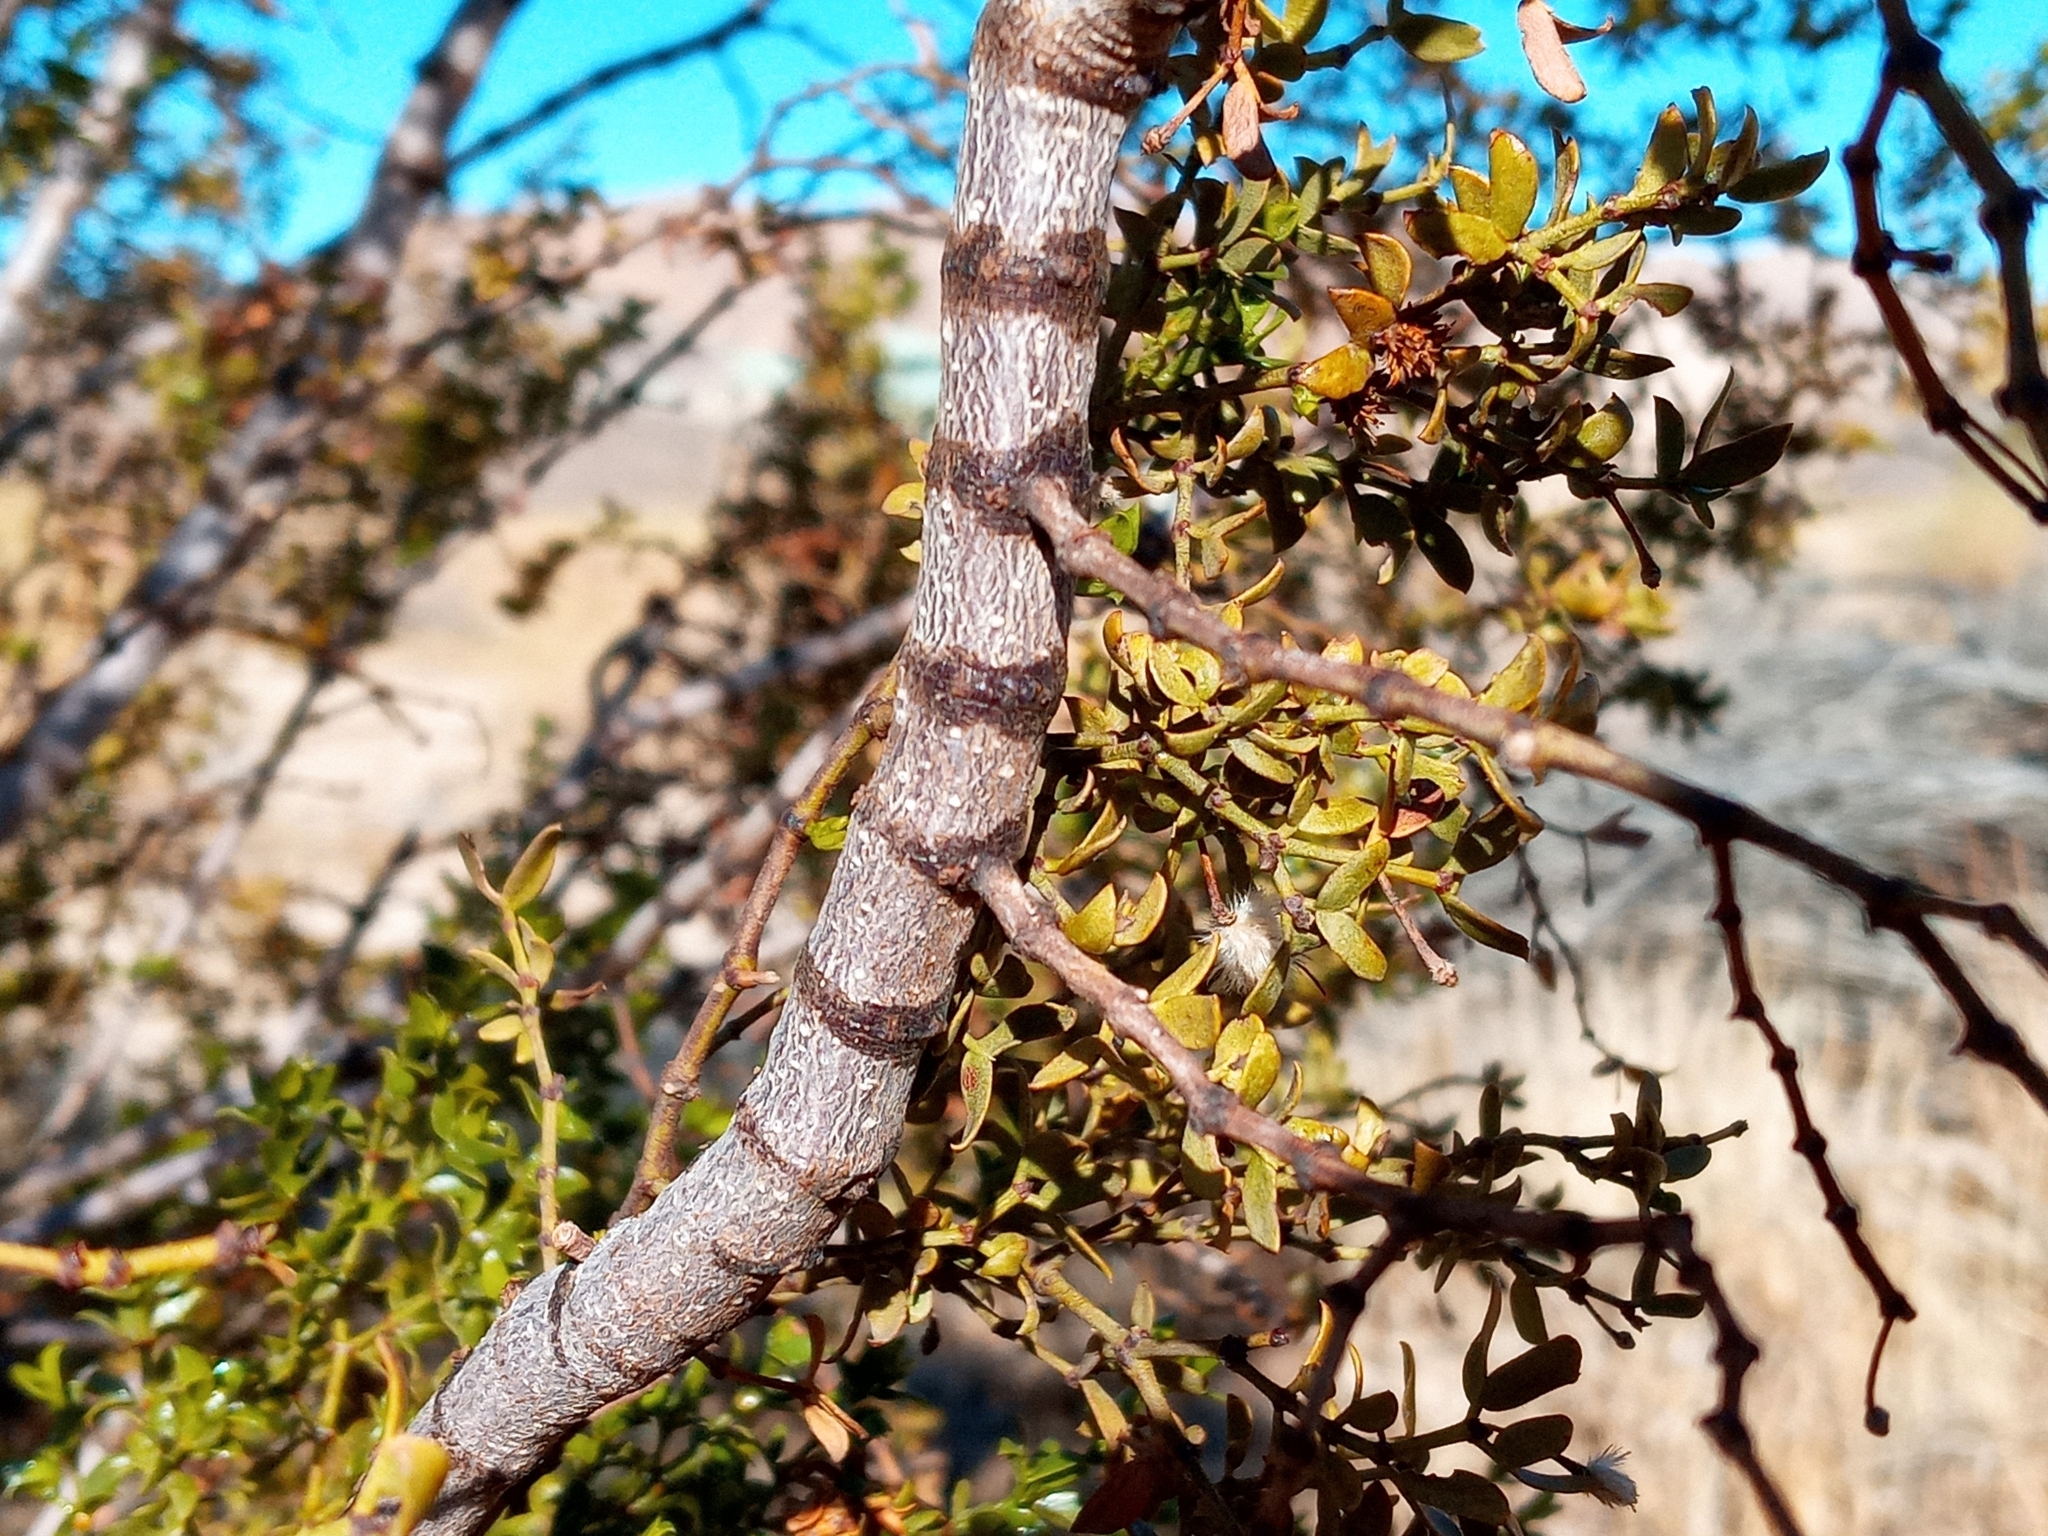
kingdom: Plantae
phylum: Tracheophyta
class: Magnoliopsida
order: Zygophyllales
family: Zygophyllaceae
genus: Larrea
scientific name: Larrea tridentata
